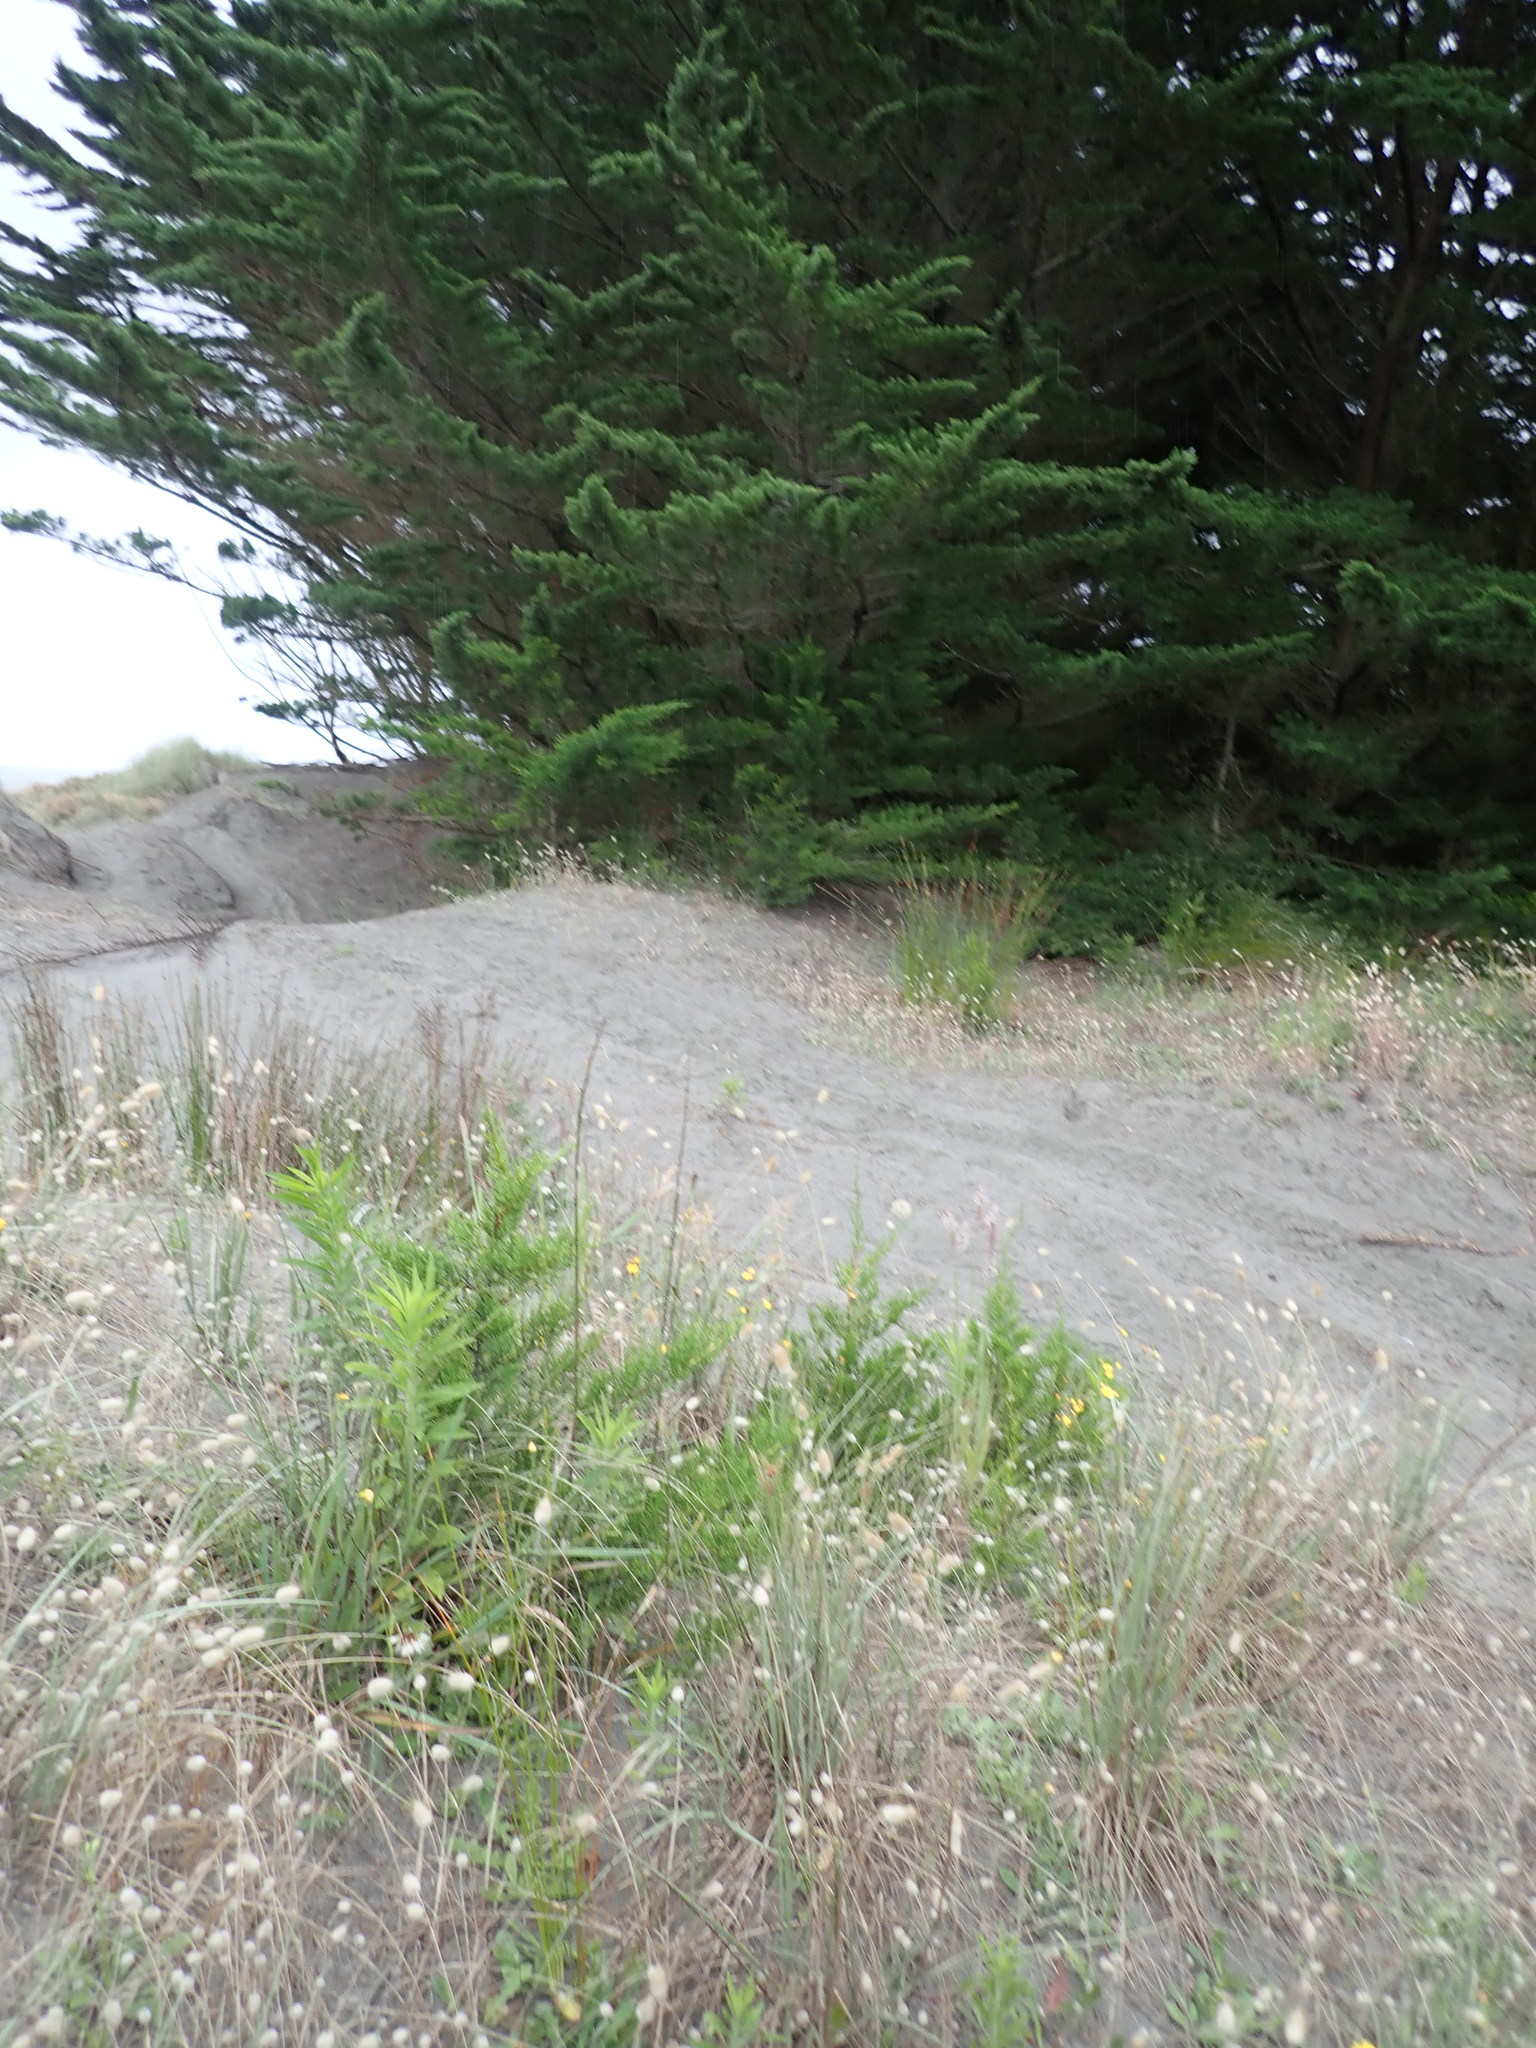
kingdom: Plantae
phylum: Tracheophyta
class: Pinopsida
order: Pinales
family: Cupressaceae
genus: Cupressus
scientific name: Cupressus macrocarpa
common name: Monterey cypress
